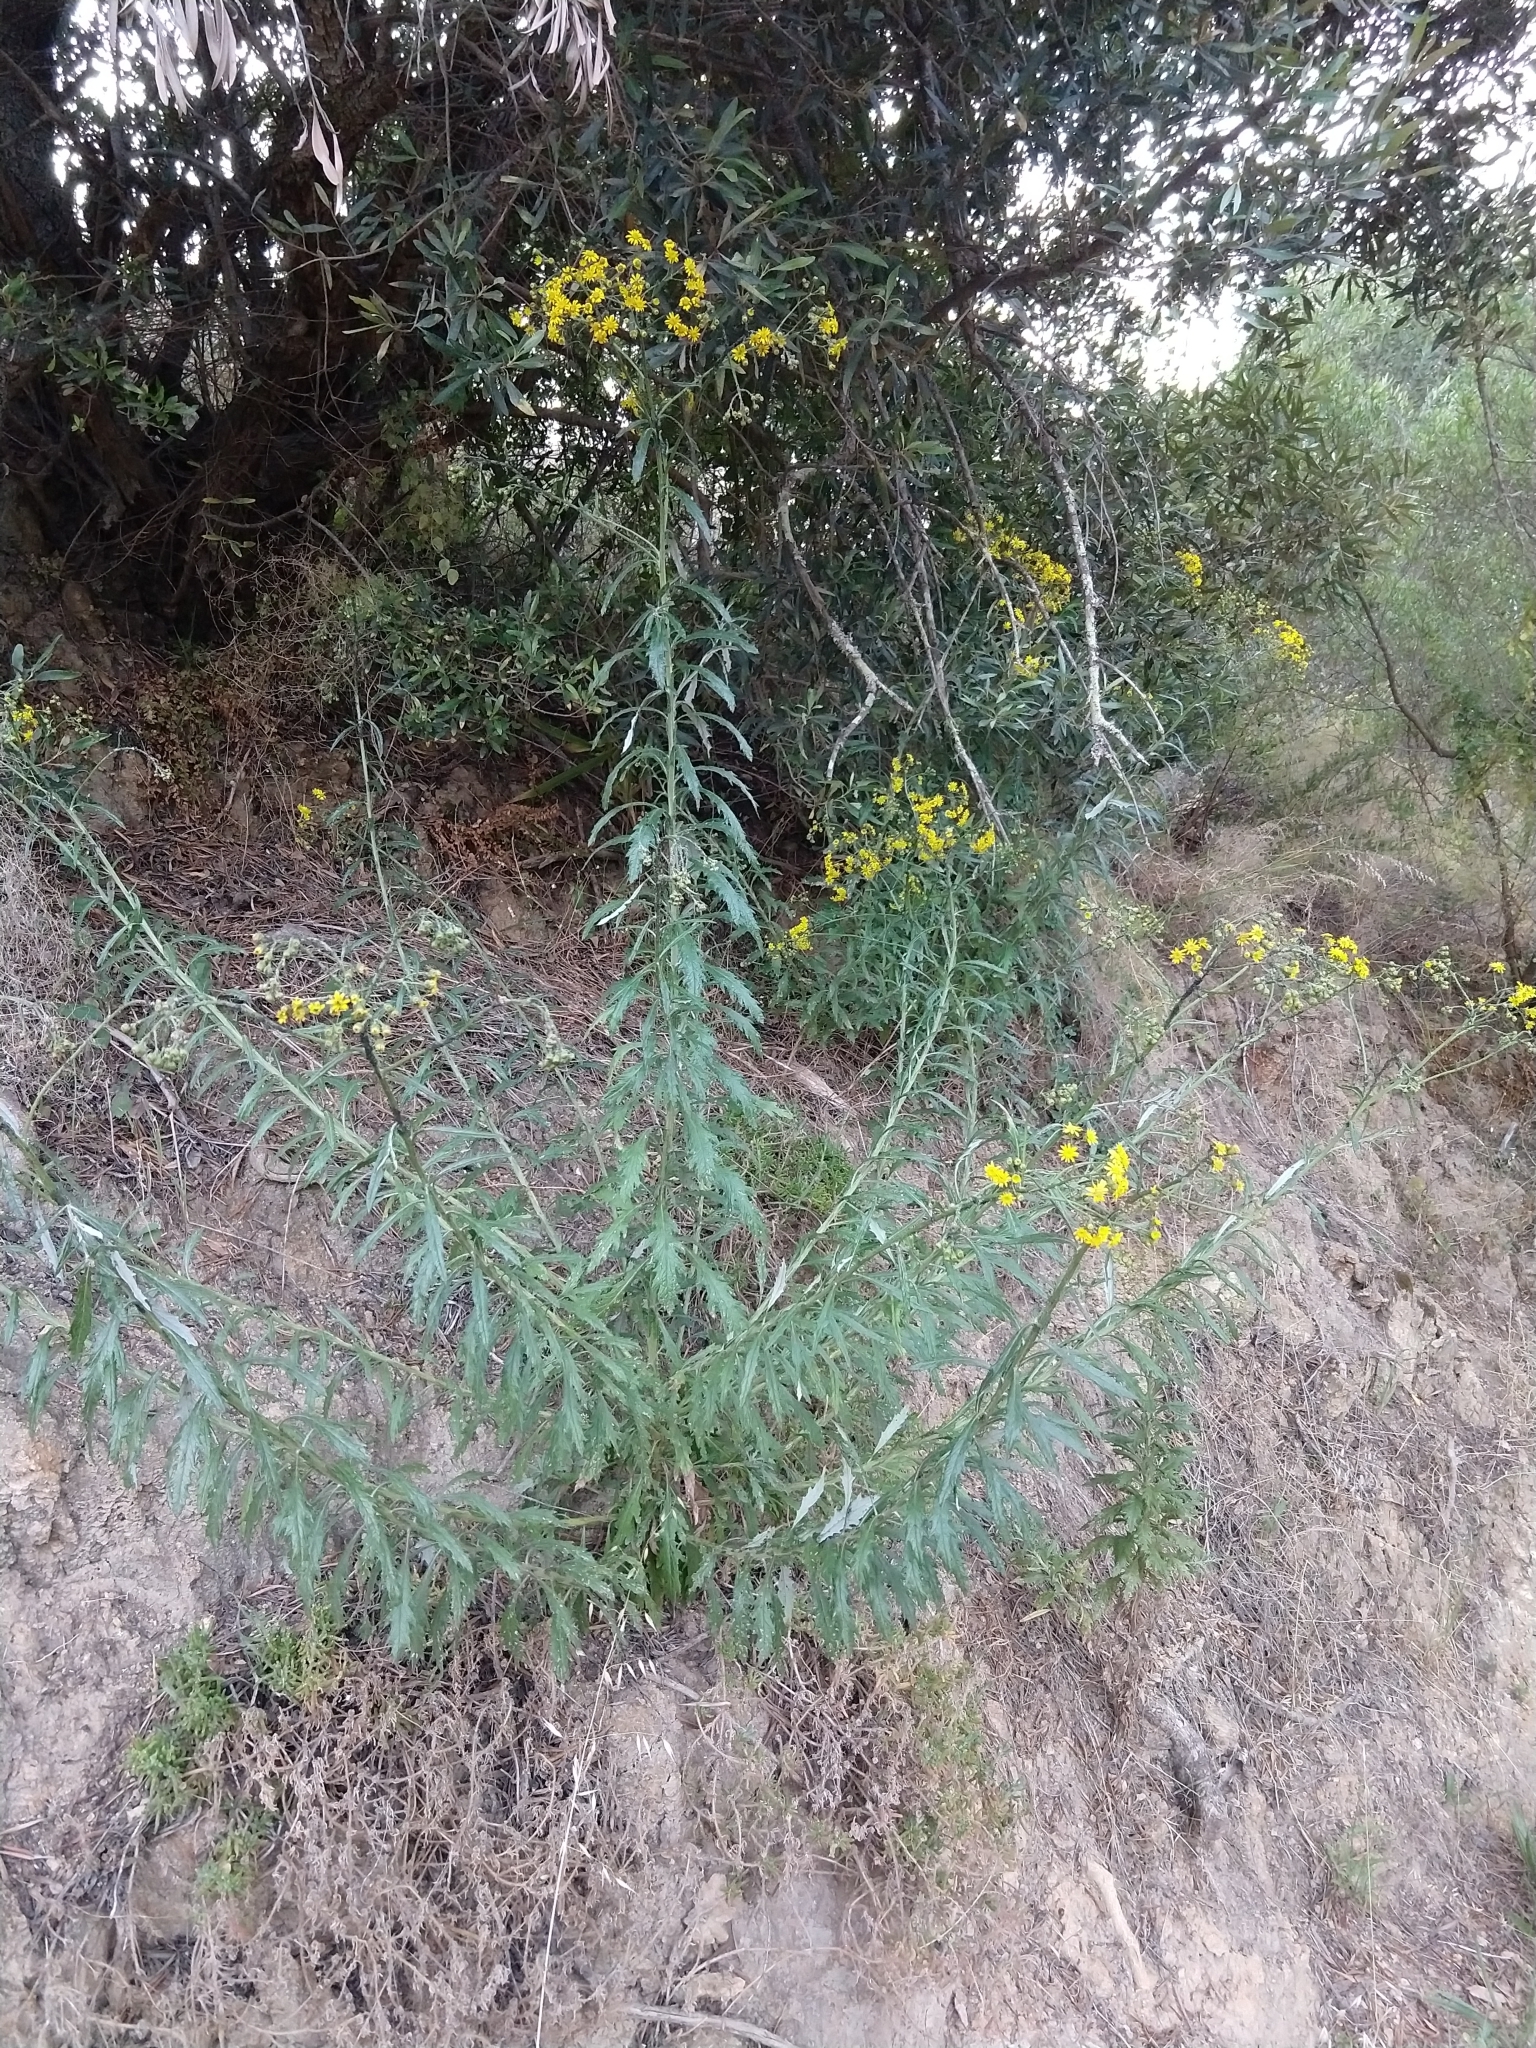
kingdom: Plantae
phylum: Tracheophyta
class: Magnoliopsida
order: Asterales
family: Asteraceae
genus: Senecio
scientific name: Senecio pterophorus
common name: Shoddy ragwort
